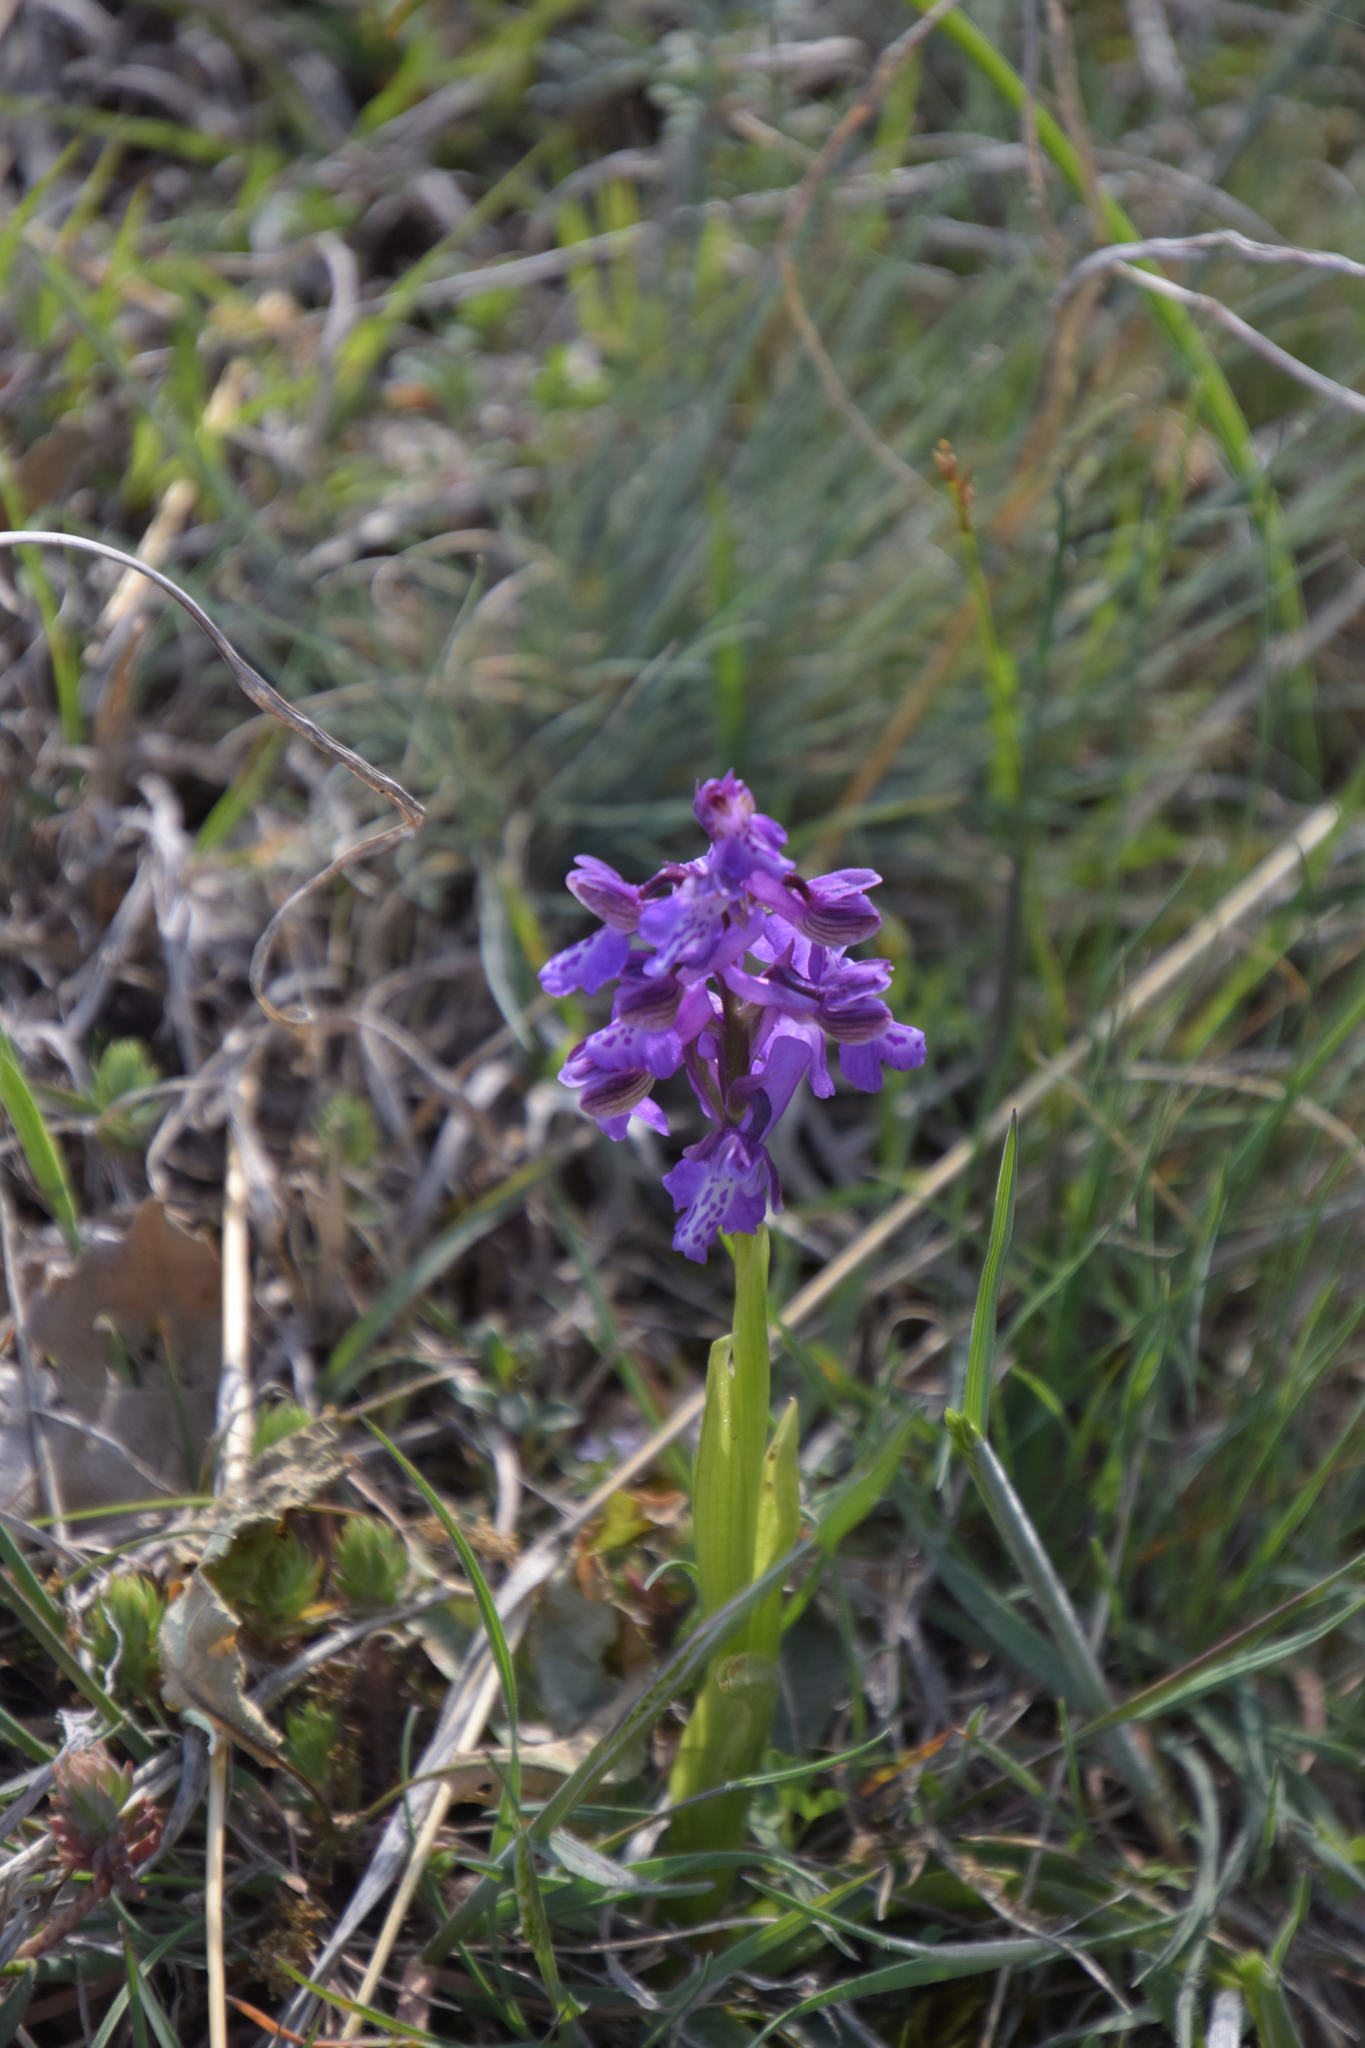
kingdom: Plantae
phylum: Tracheophyta
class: Liliopsida
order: Asparagales
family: Orchidaceae
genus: Anacamptis
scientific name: Anacamptis morio
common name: Green-winged orchid
